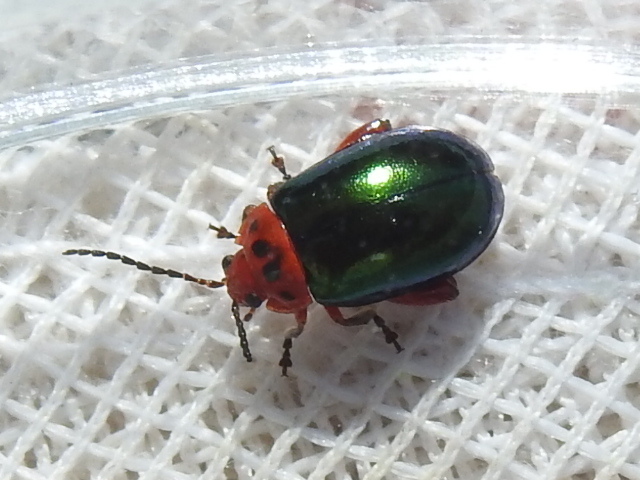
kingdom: Animalia
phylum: Arthropoda
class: Insecta
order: Coleoptera
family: Chrysomelidae
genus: Kuschelina
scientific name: Kuschelina gibbitarsa
